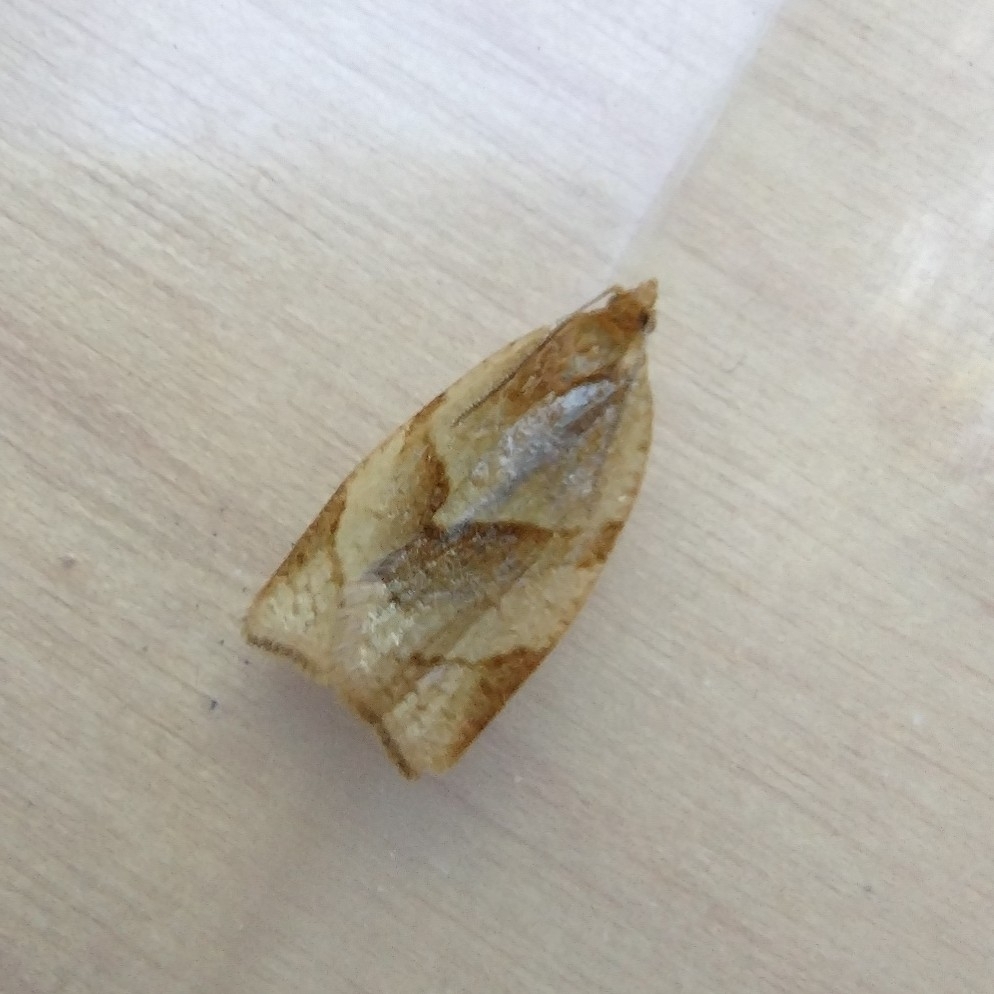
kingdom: Animalia
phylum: Arthropoda
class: Insecta
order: Lepidoptera
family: Tortricidae
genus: Clepsis
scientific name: Clepsis rurinana
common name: Pale twist
